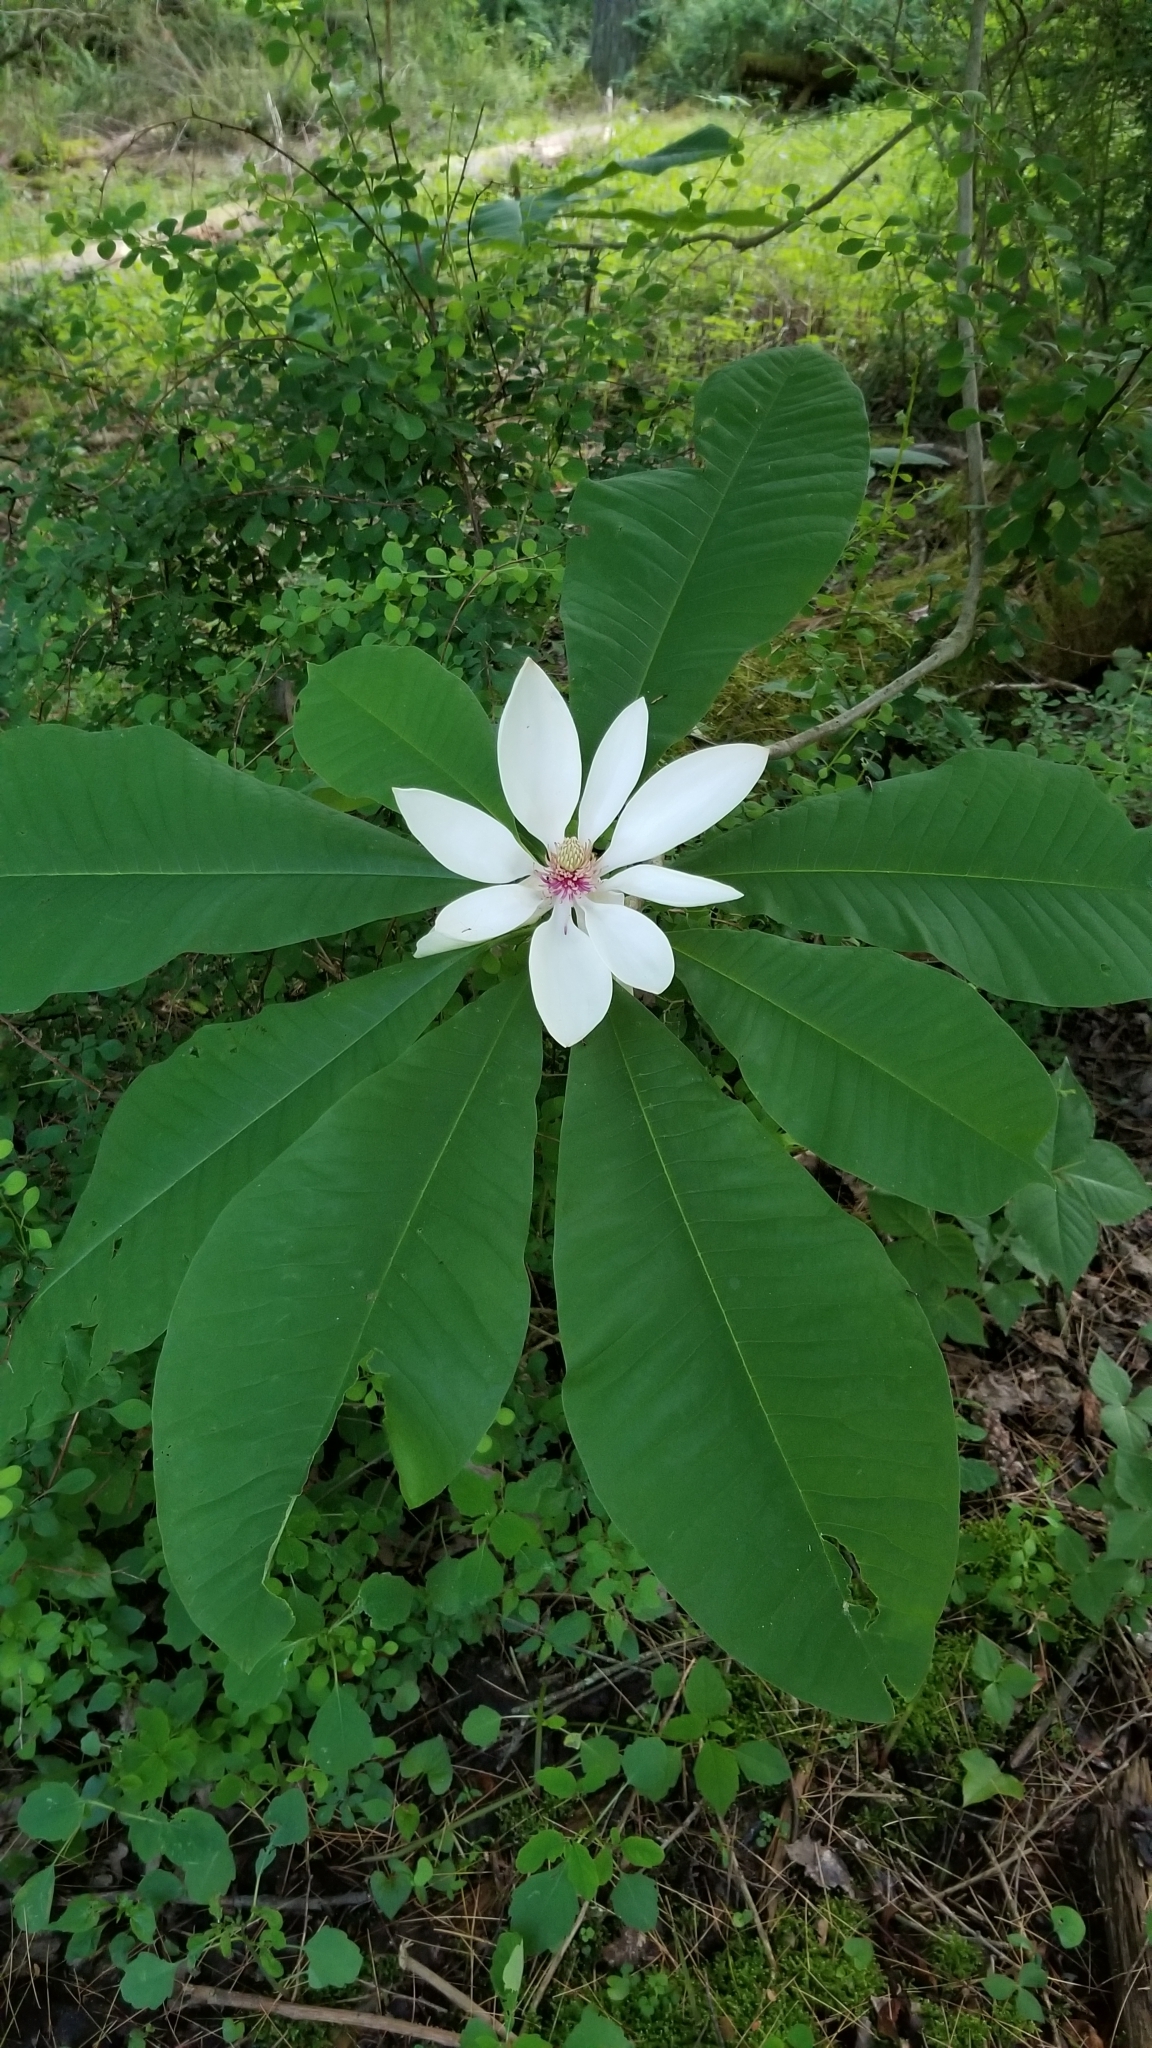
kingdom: Plantae
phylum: Tracheophyta
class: Magnoliopsida
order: Magnoliales
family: Magnoliaceae
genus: Magnolia
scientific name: Magnolia tripetala
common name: Umbrella magnolia
